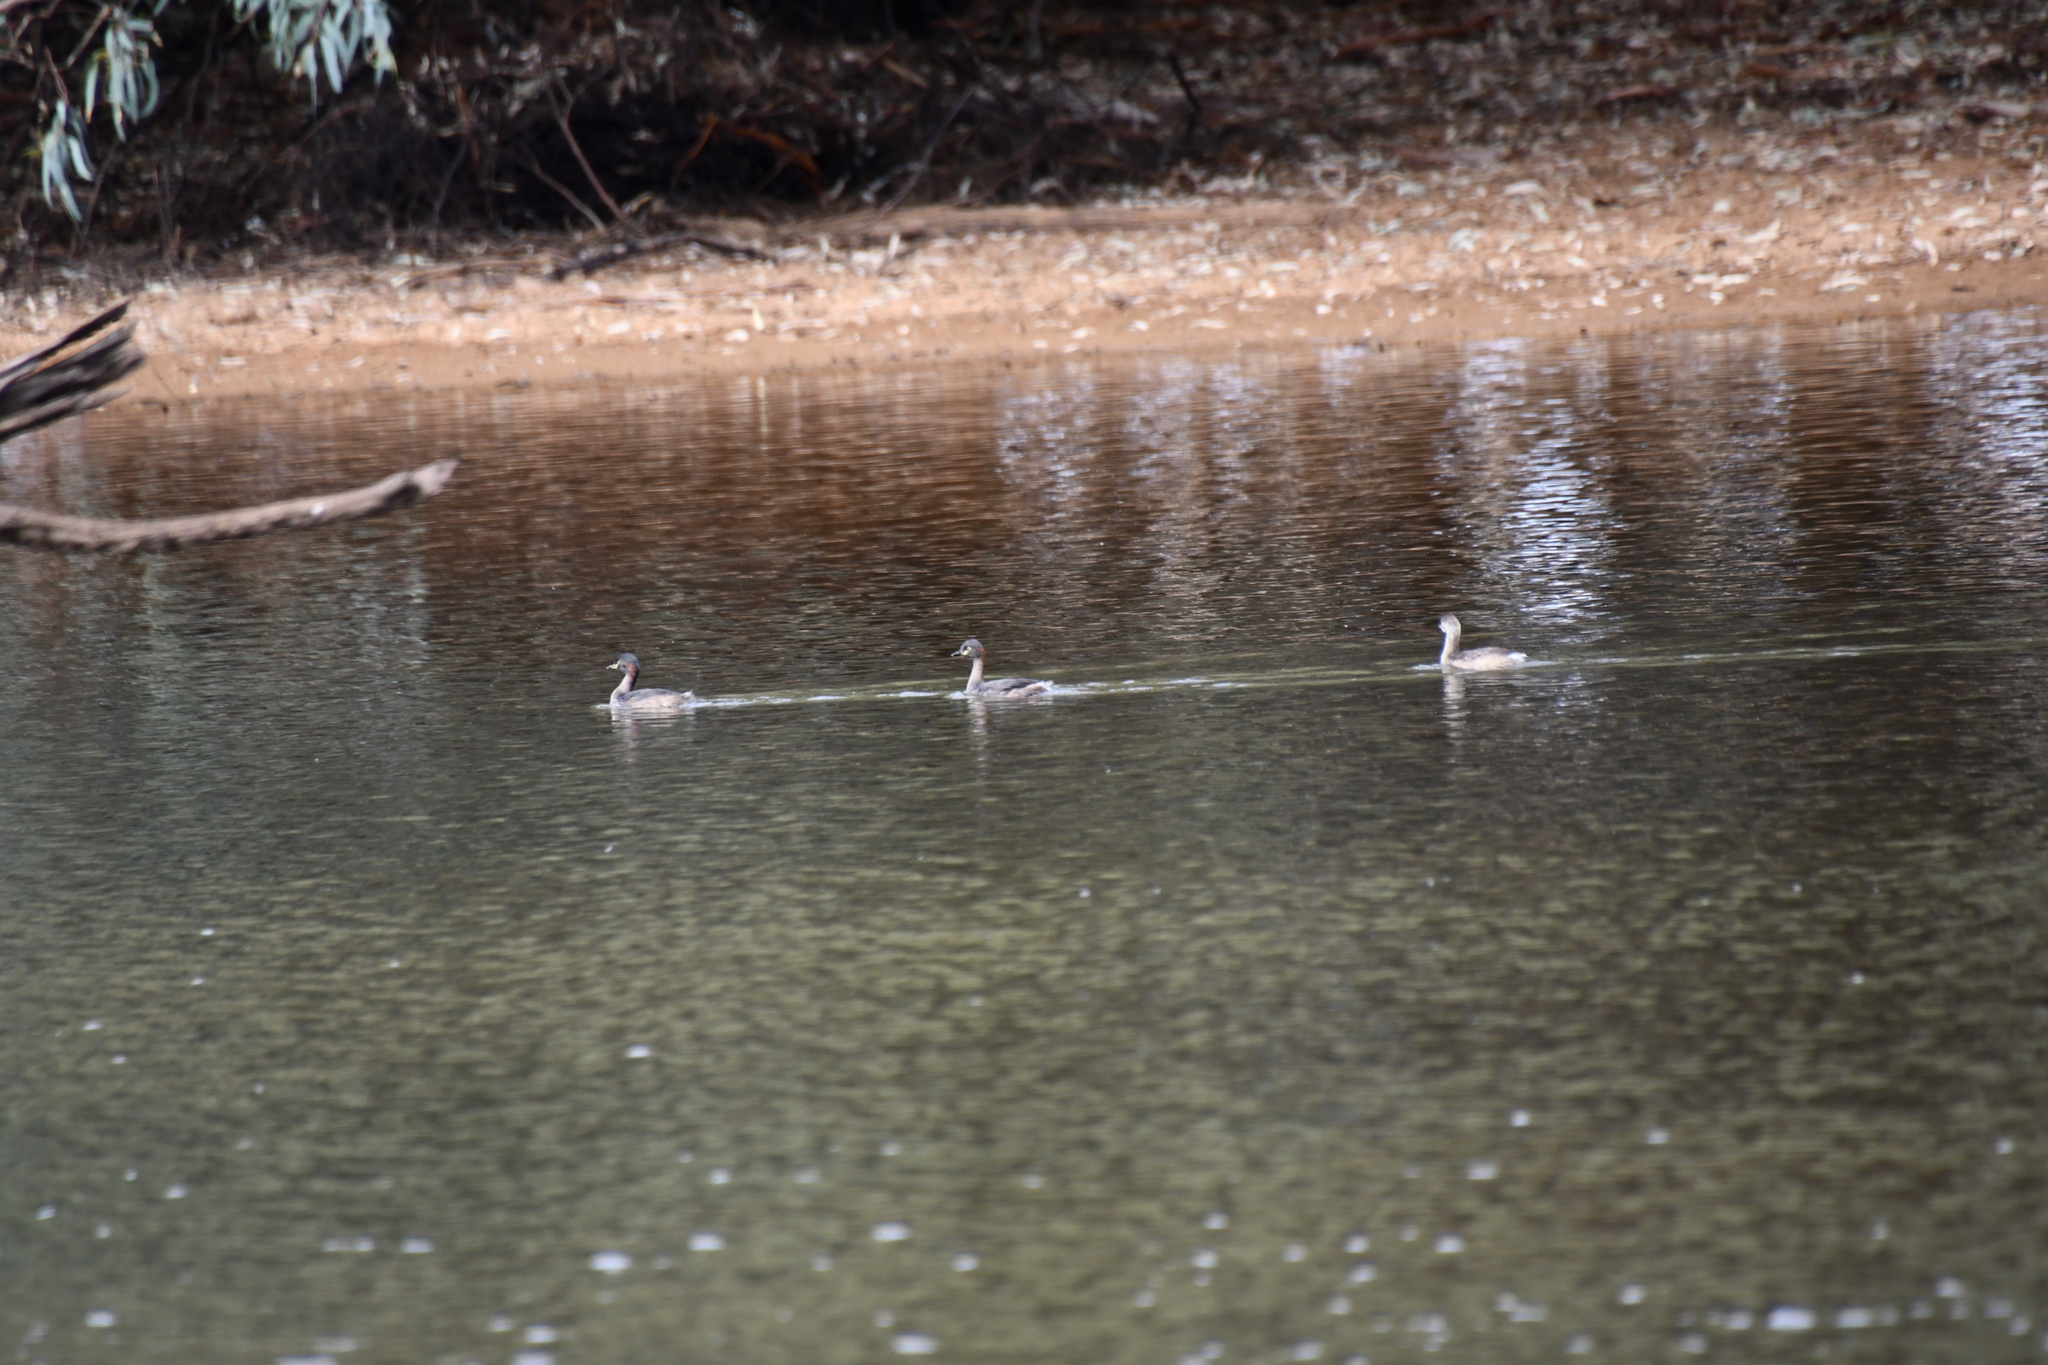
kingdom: Animalia
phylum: Chordata
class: Aves
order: Podicipediformes
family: Podicipedidae
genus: Tachybaptus
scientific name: Tachybaptus novaehollandiae
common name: Australasian grebe
